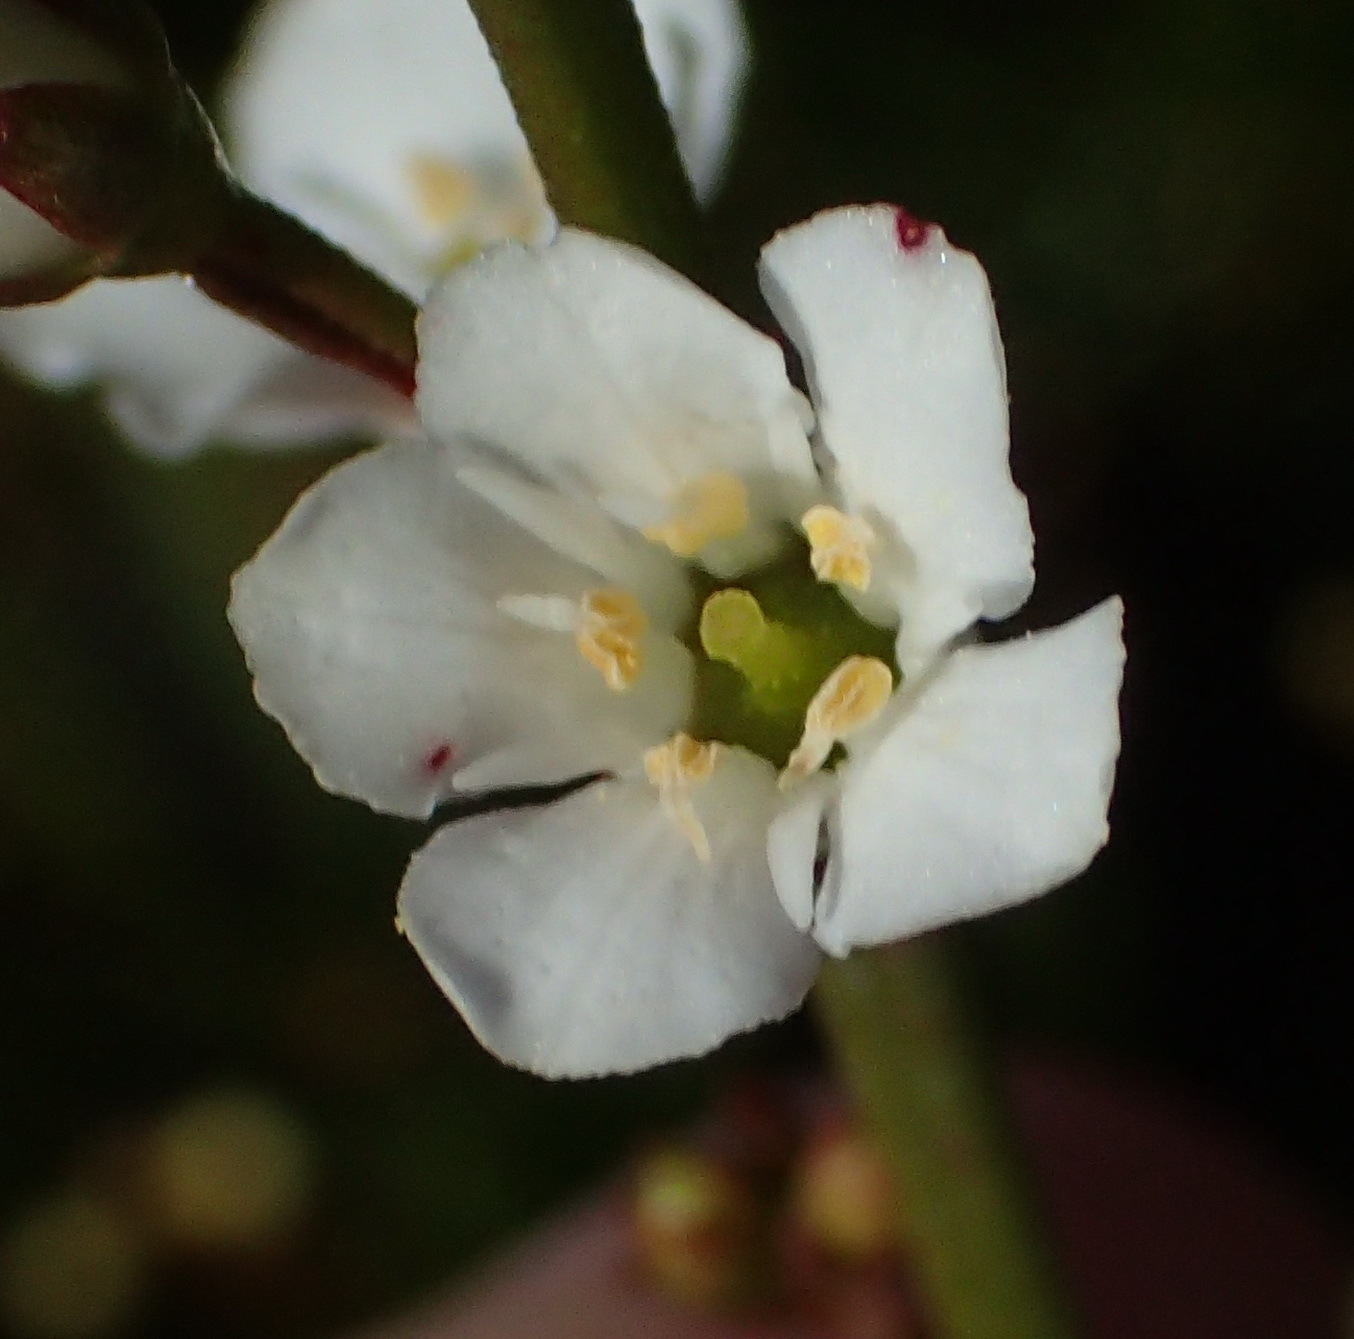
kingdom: Plantae
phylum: Tracheophyta
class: Magnoliopsida
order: Ericales
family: Primulaceae
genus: Samolus
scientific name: Samolus porosus
